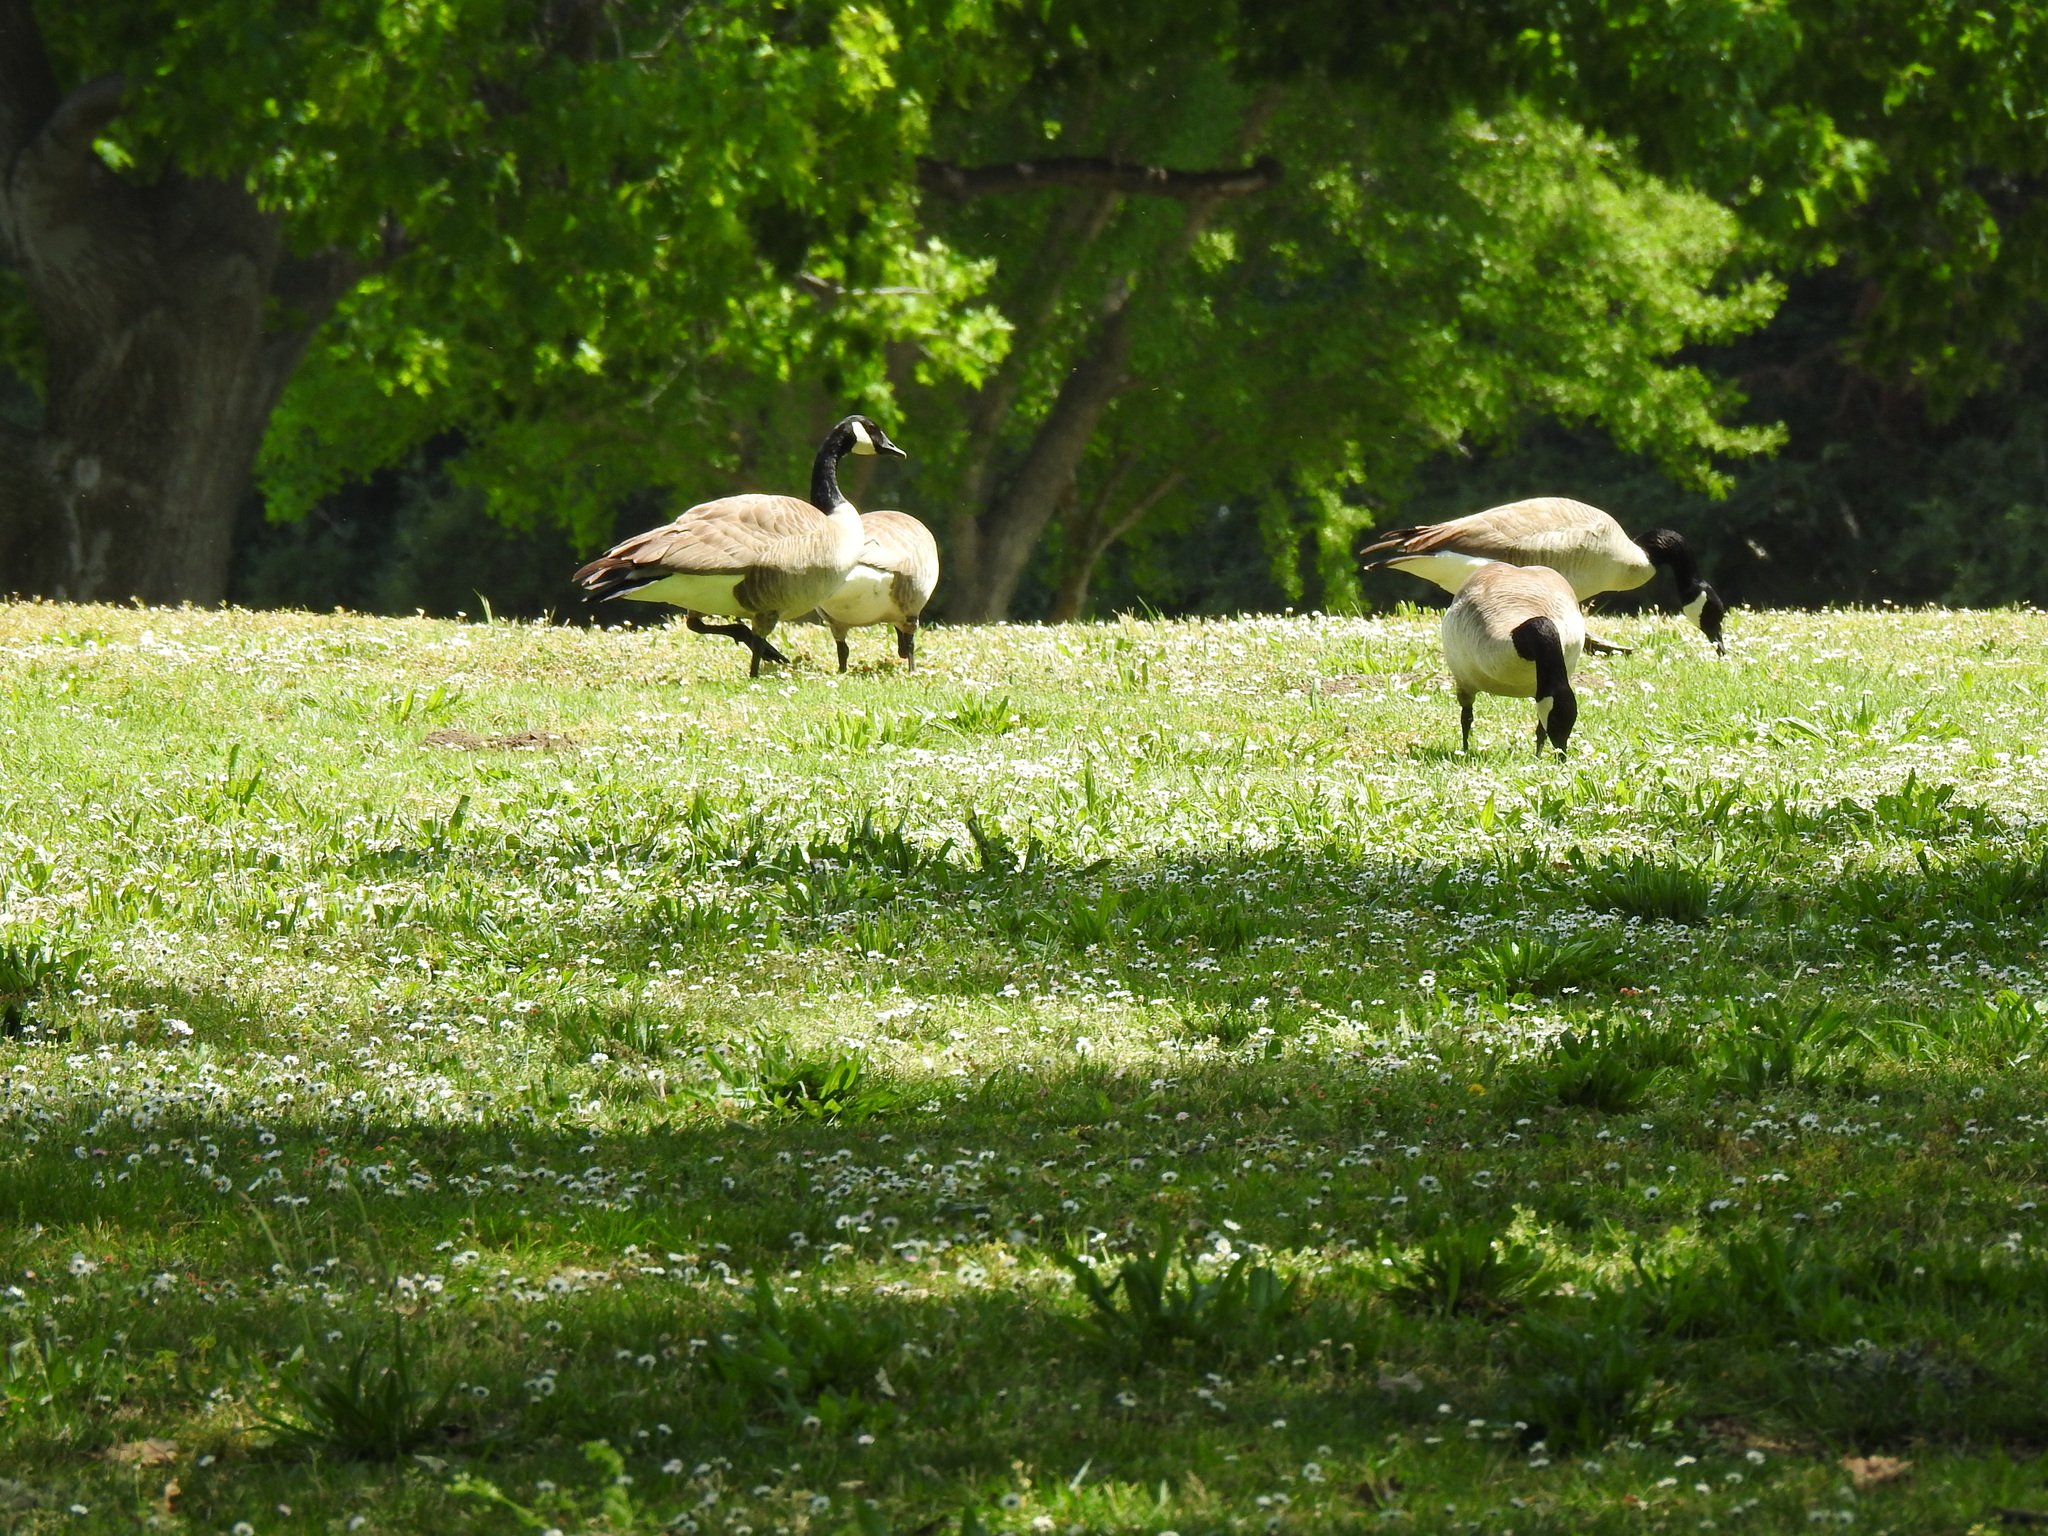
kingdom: Animalia
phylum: Chordata
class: Aves
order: Anseriformes
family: Anatidae
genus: Branta
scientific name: Branta canadensis
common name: Canada goose
